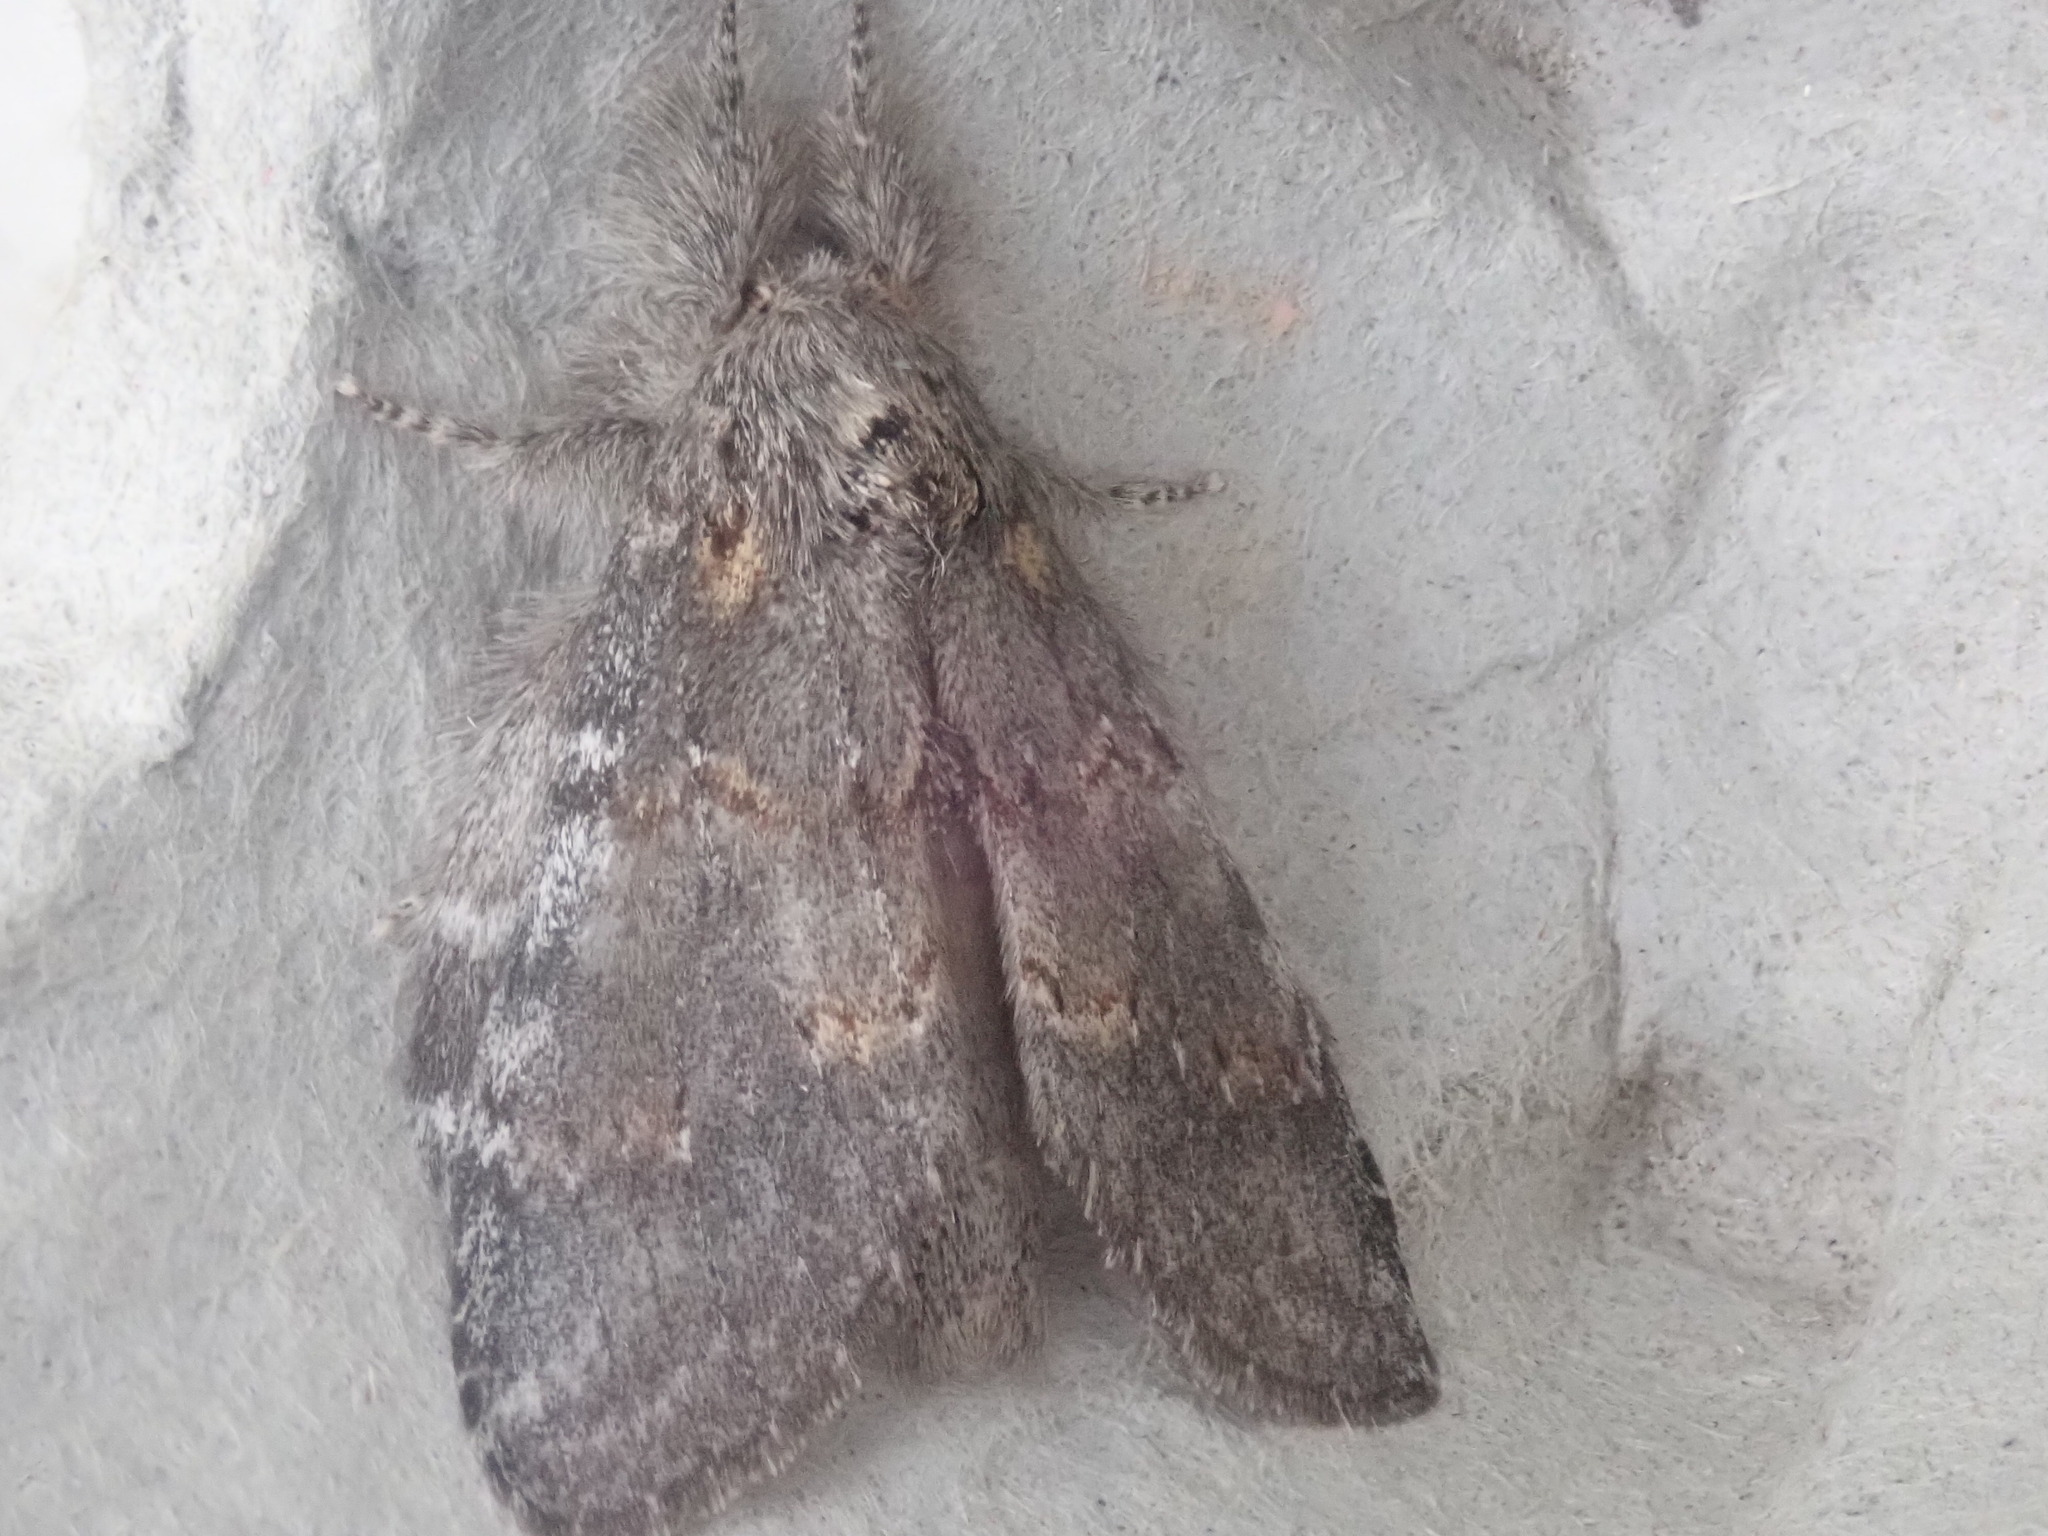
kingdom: Animalia
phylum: Arthropoda
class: Insecta
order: Lepidoptera
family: Notodontidae
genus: Peridea
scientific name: Peridea angulosa
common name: Angulose prominent
